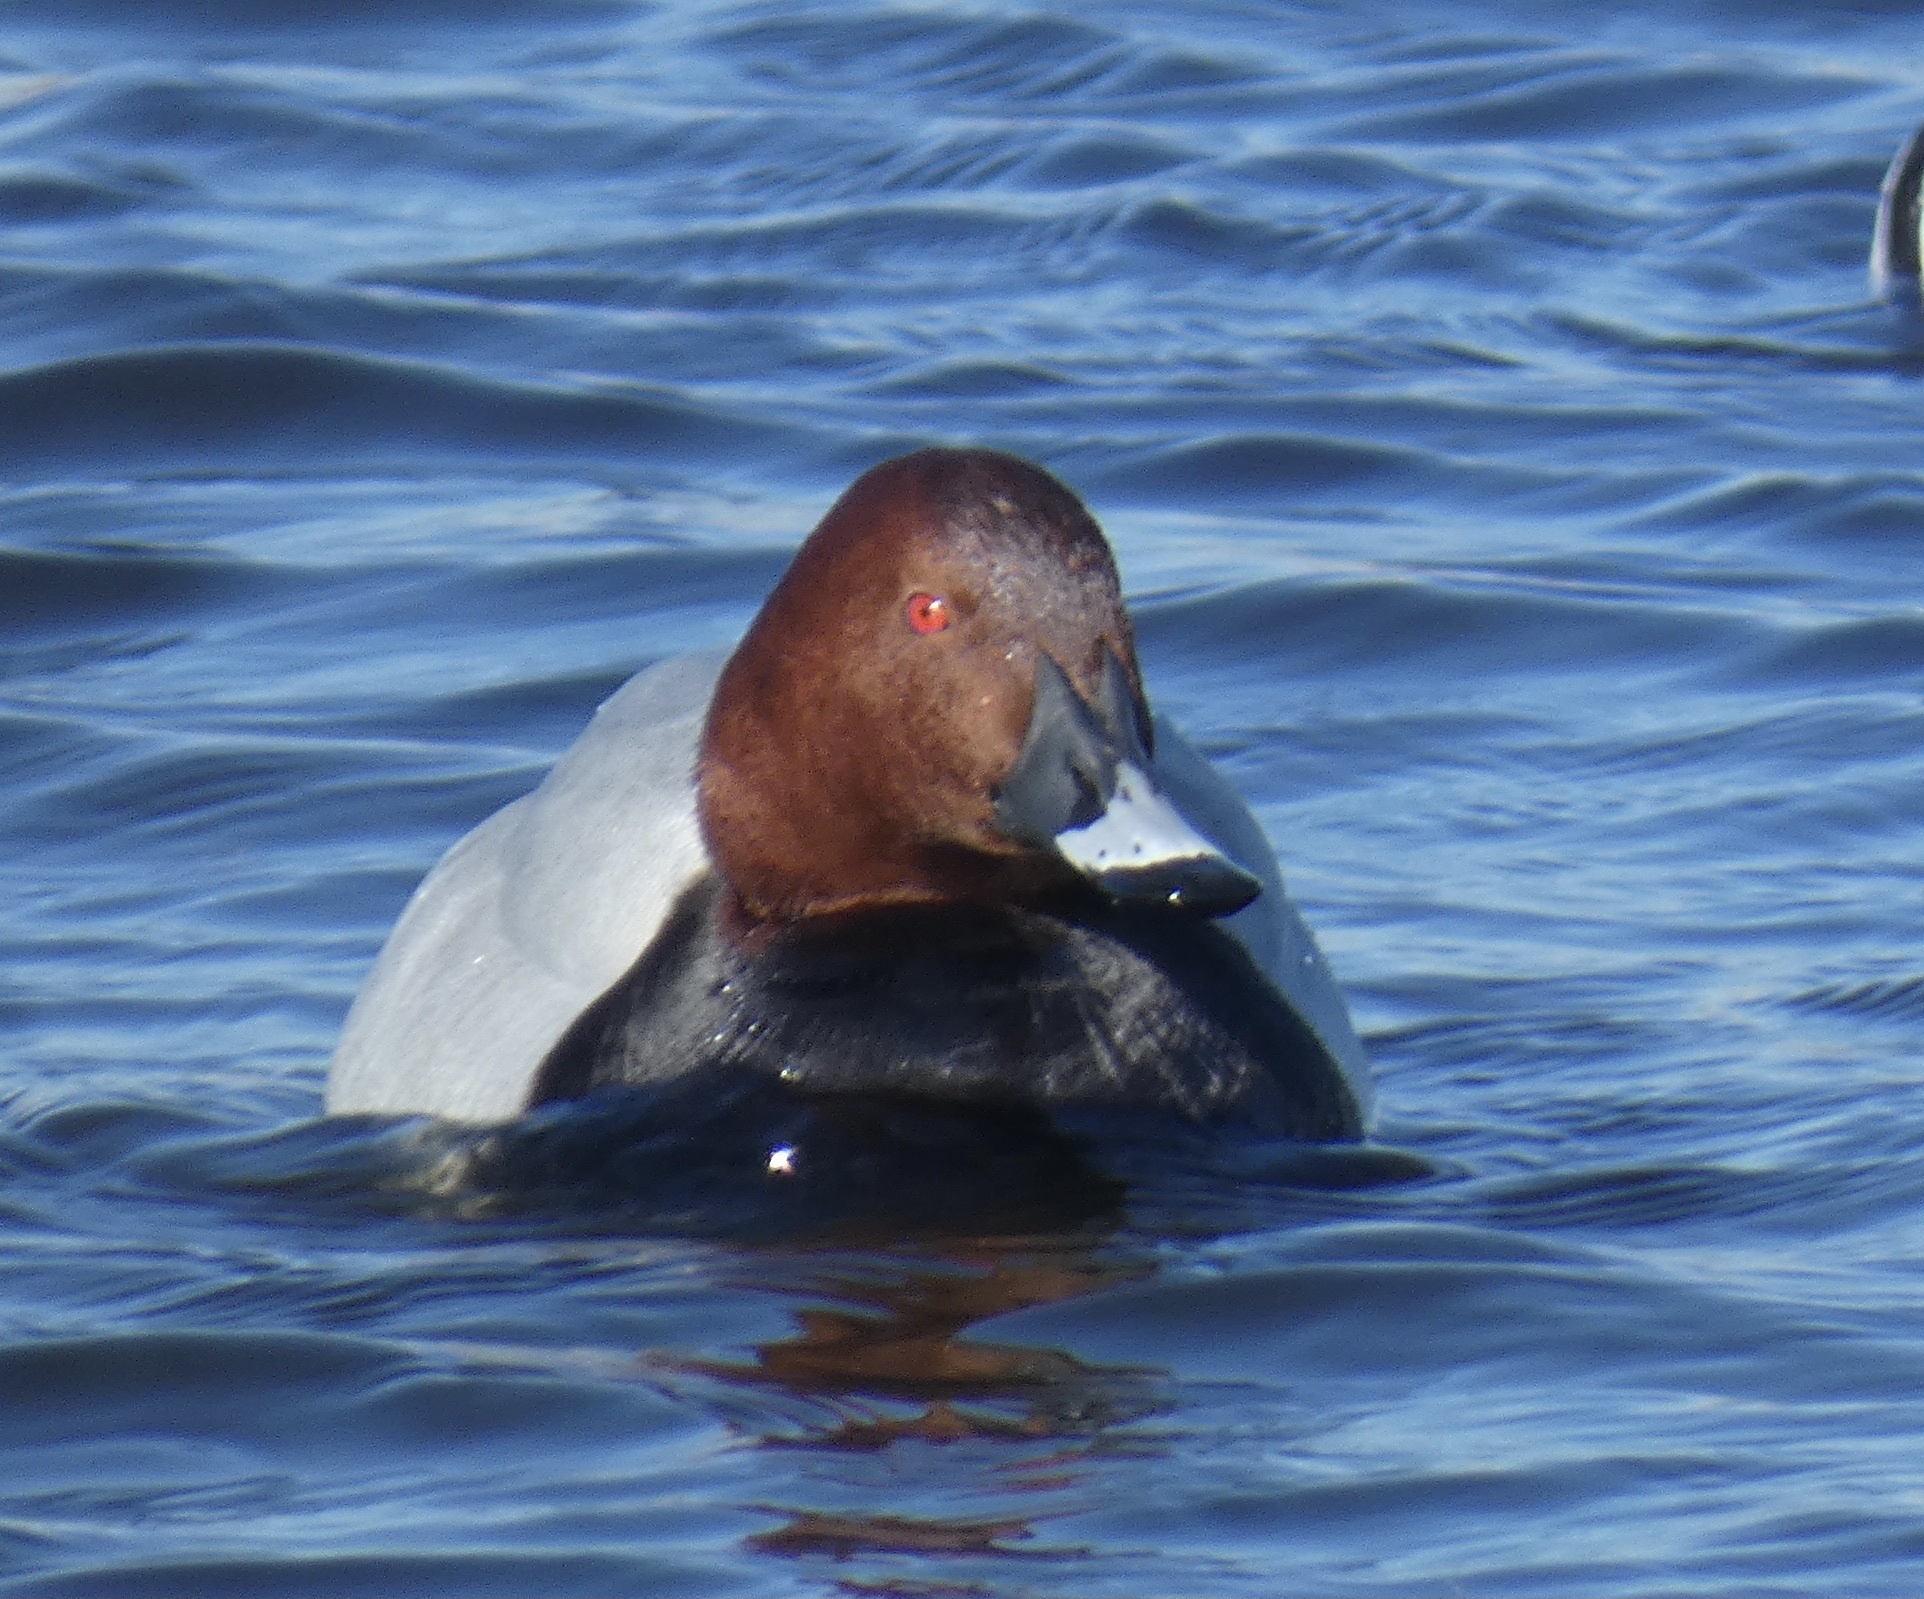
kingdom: Animalia
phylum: Chordata
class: Aves
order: Anseriformes
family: Anatidae
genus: Aythya
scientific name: Aythya ferina
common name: Common pochard
